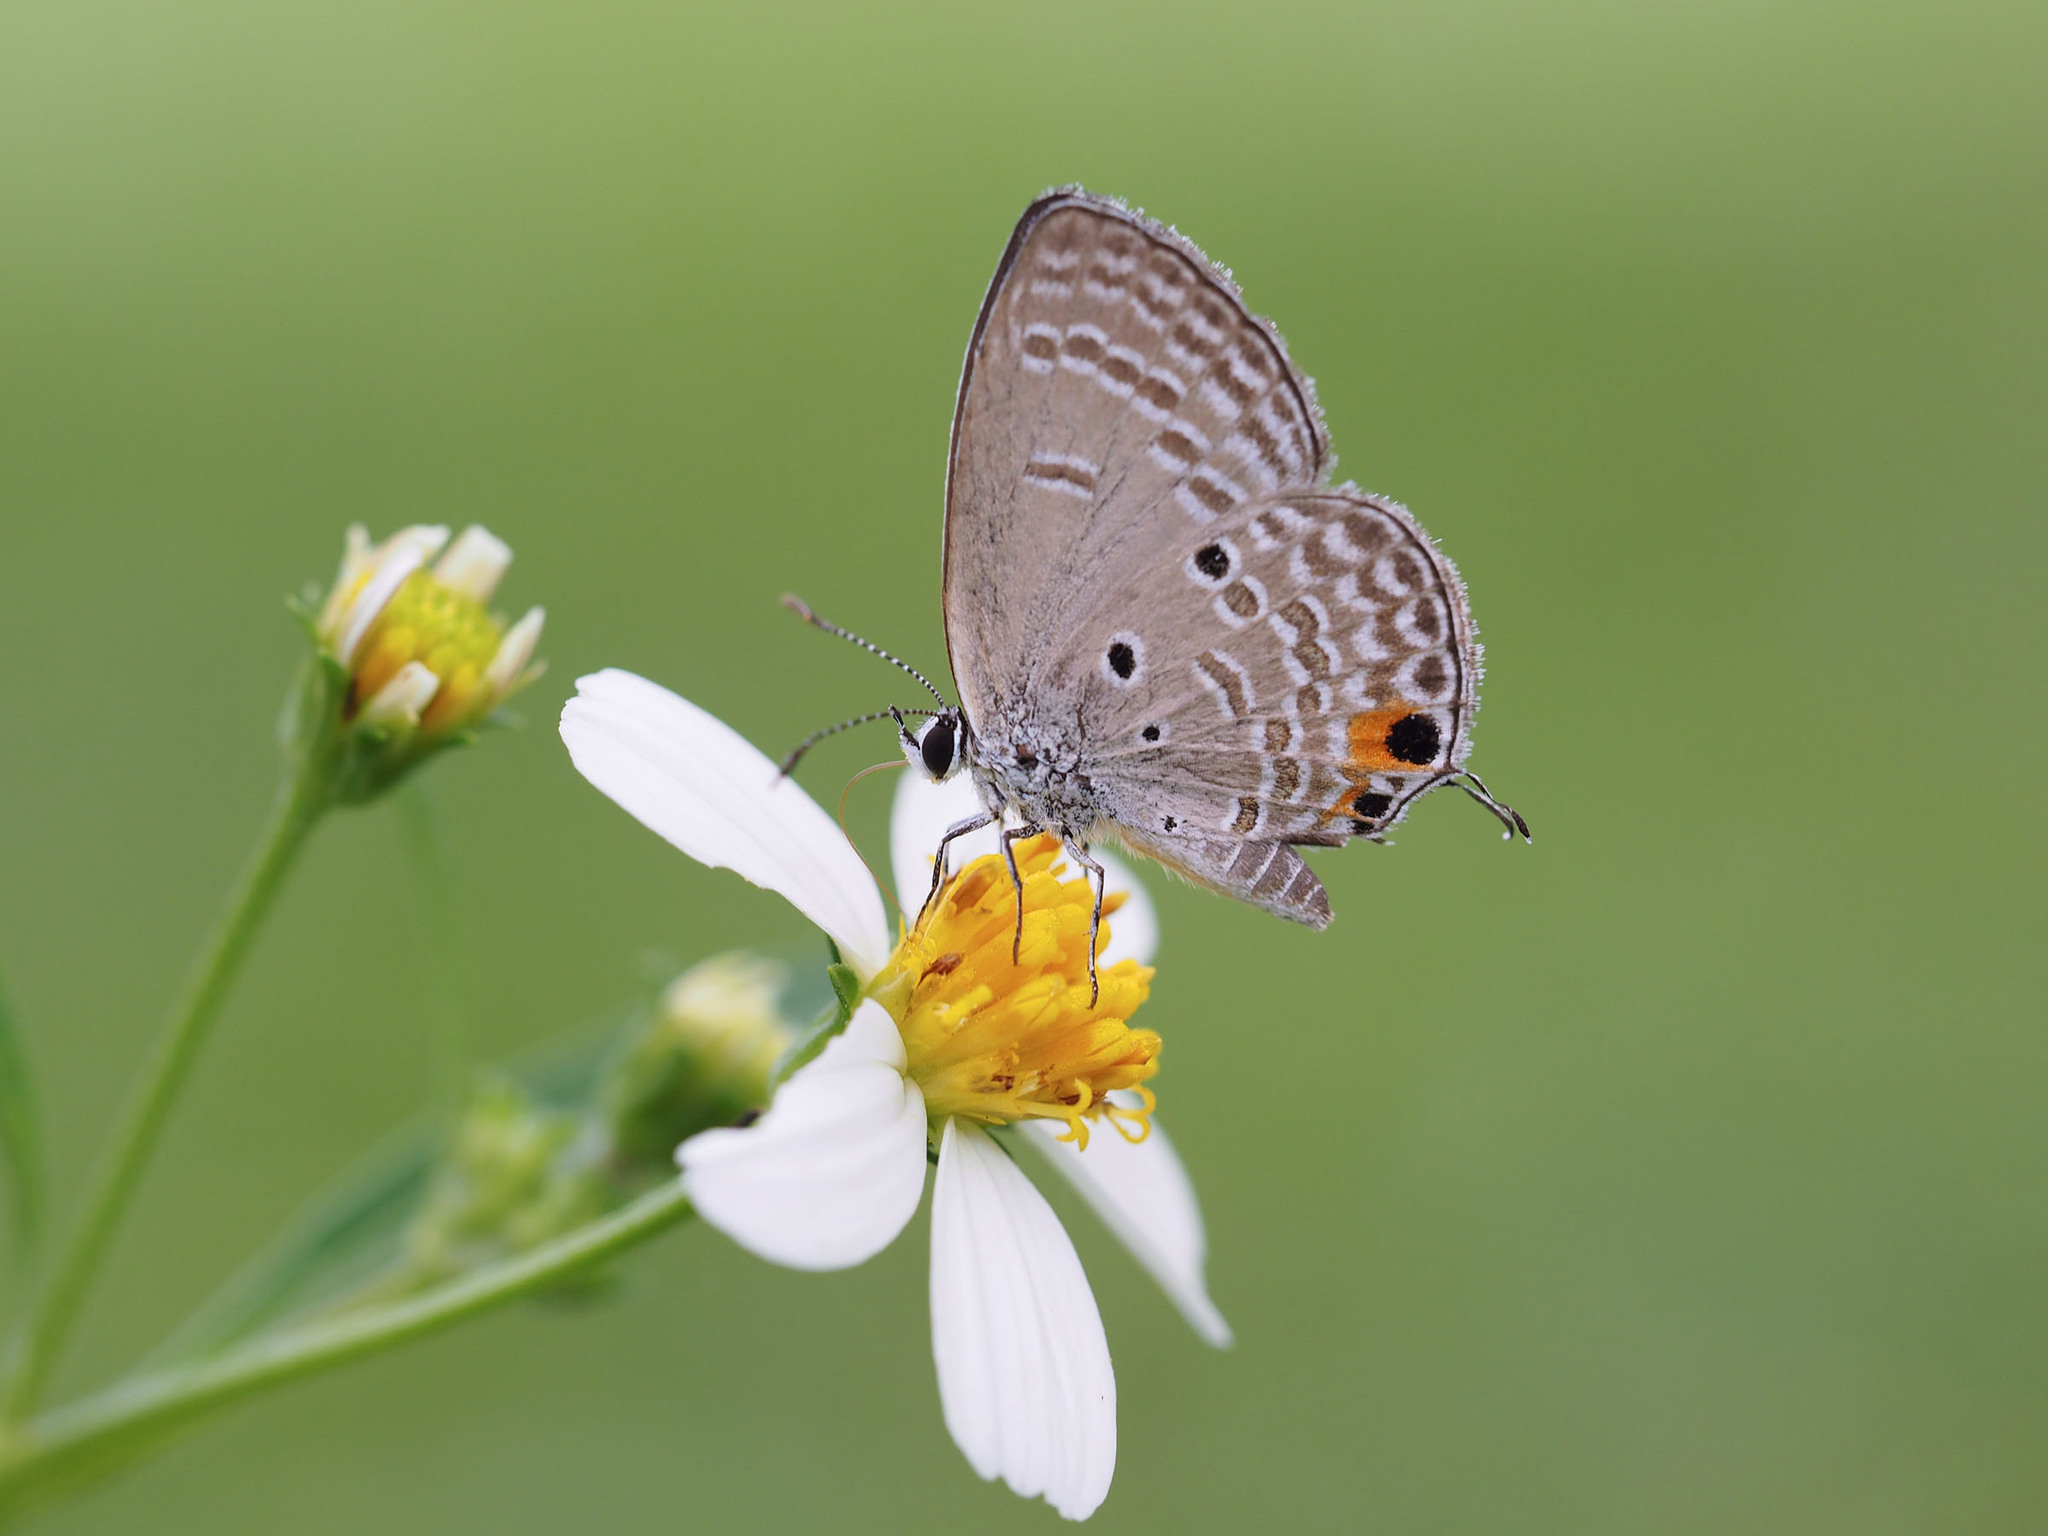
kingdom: Animalia
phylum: Arthropoda
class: Insecta
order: Lepidoptera
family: Lycaenidae
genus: Luthrodes
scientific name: Luthrodes pandava
